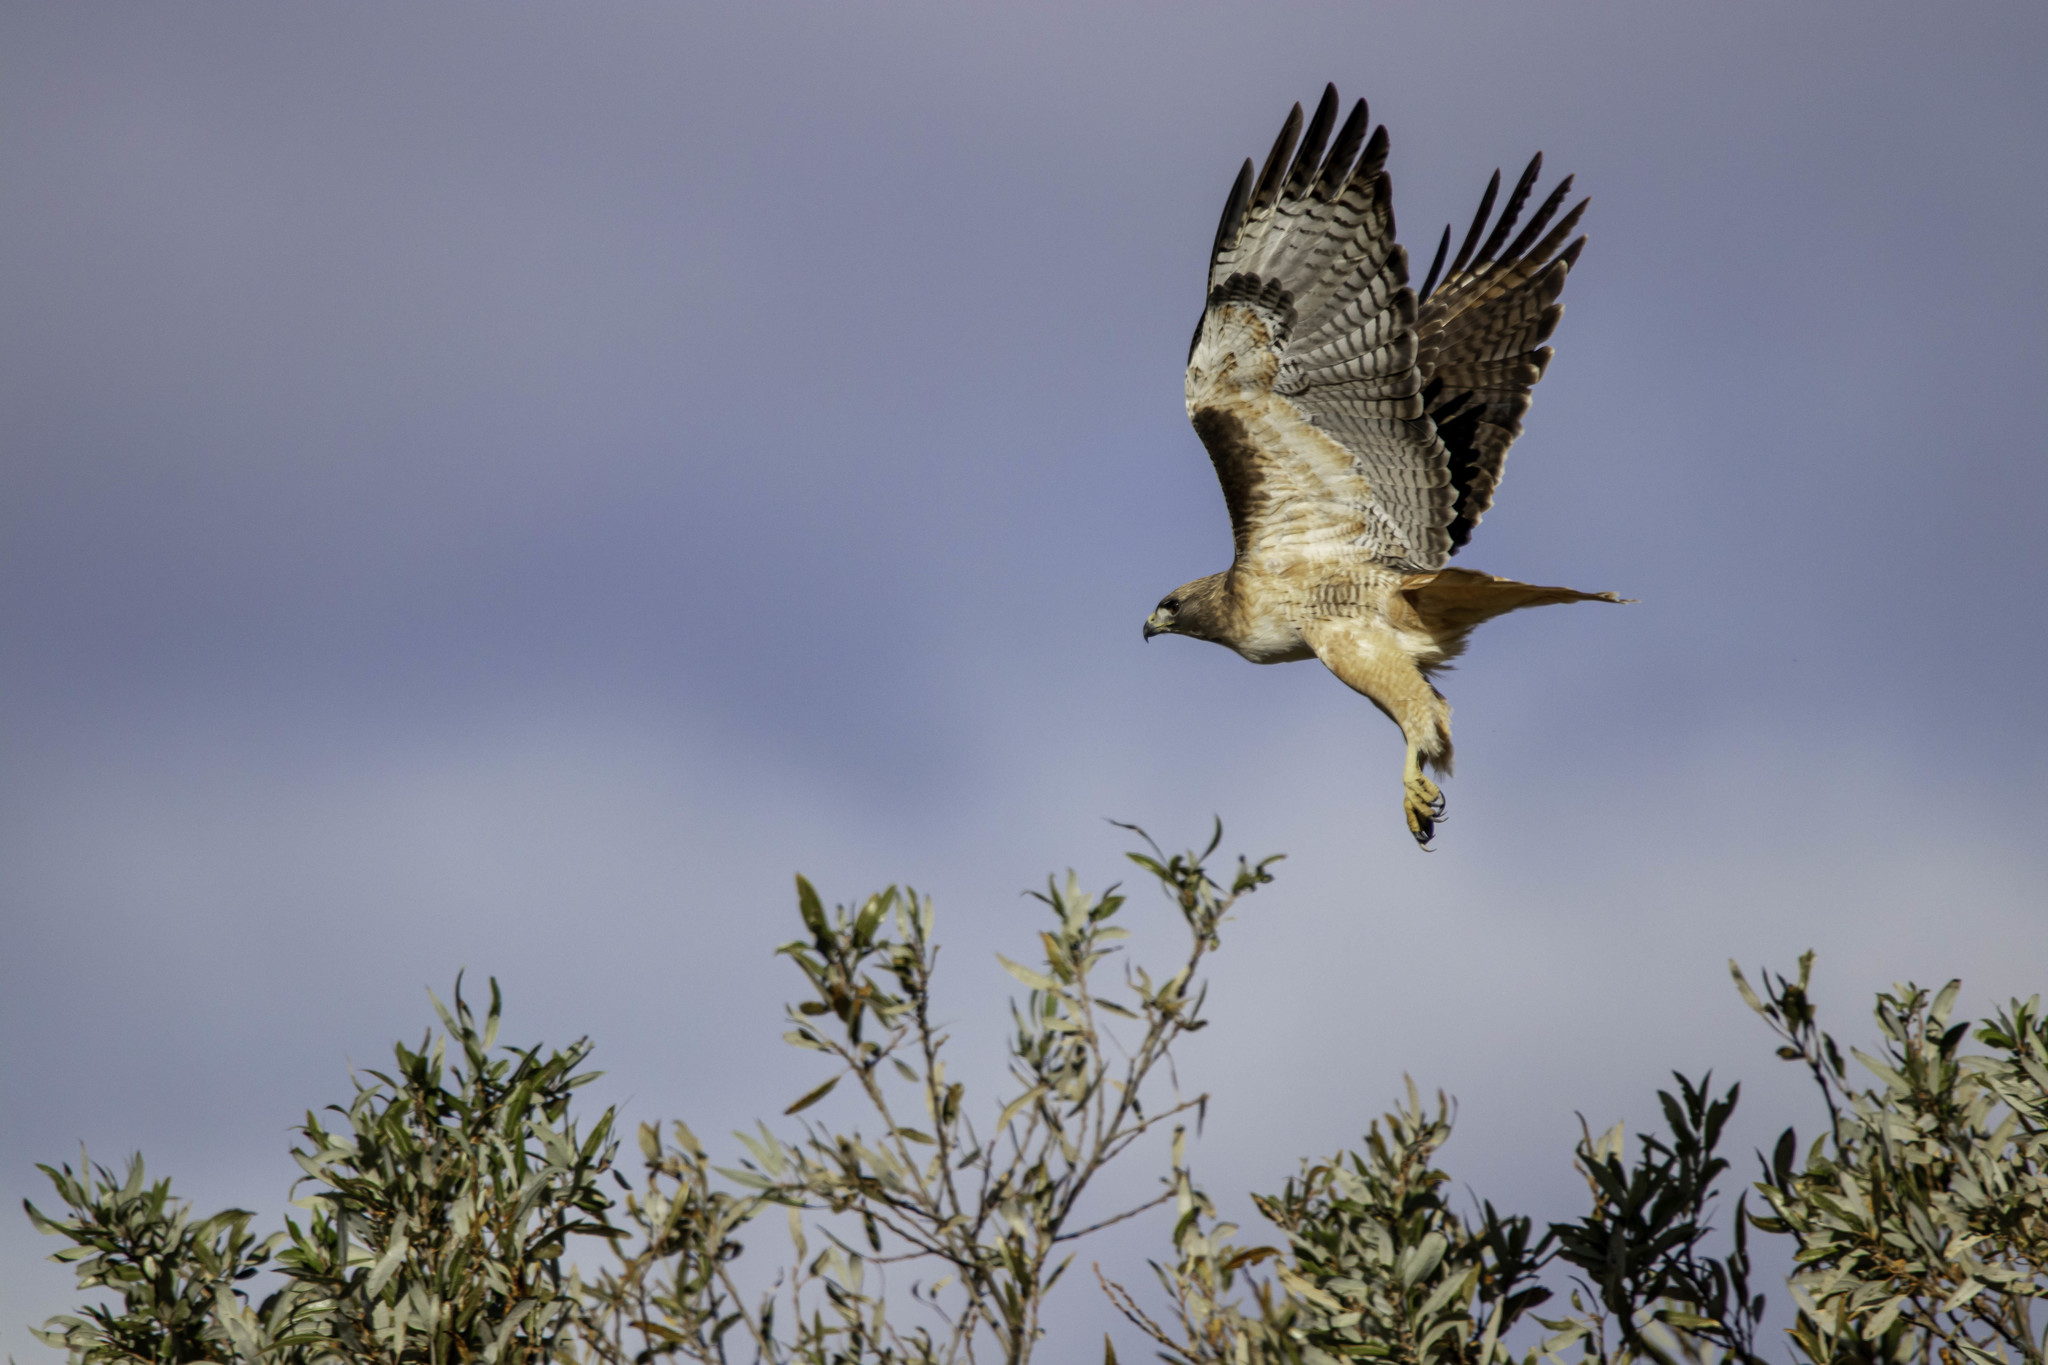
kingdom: Animalia
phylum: Chordata
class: Aves
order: Accipitriformes
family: Accipitridae
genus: Buteo
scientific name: Buteo jamaicensis
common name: Red-tailed hawk
